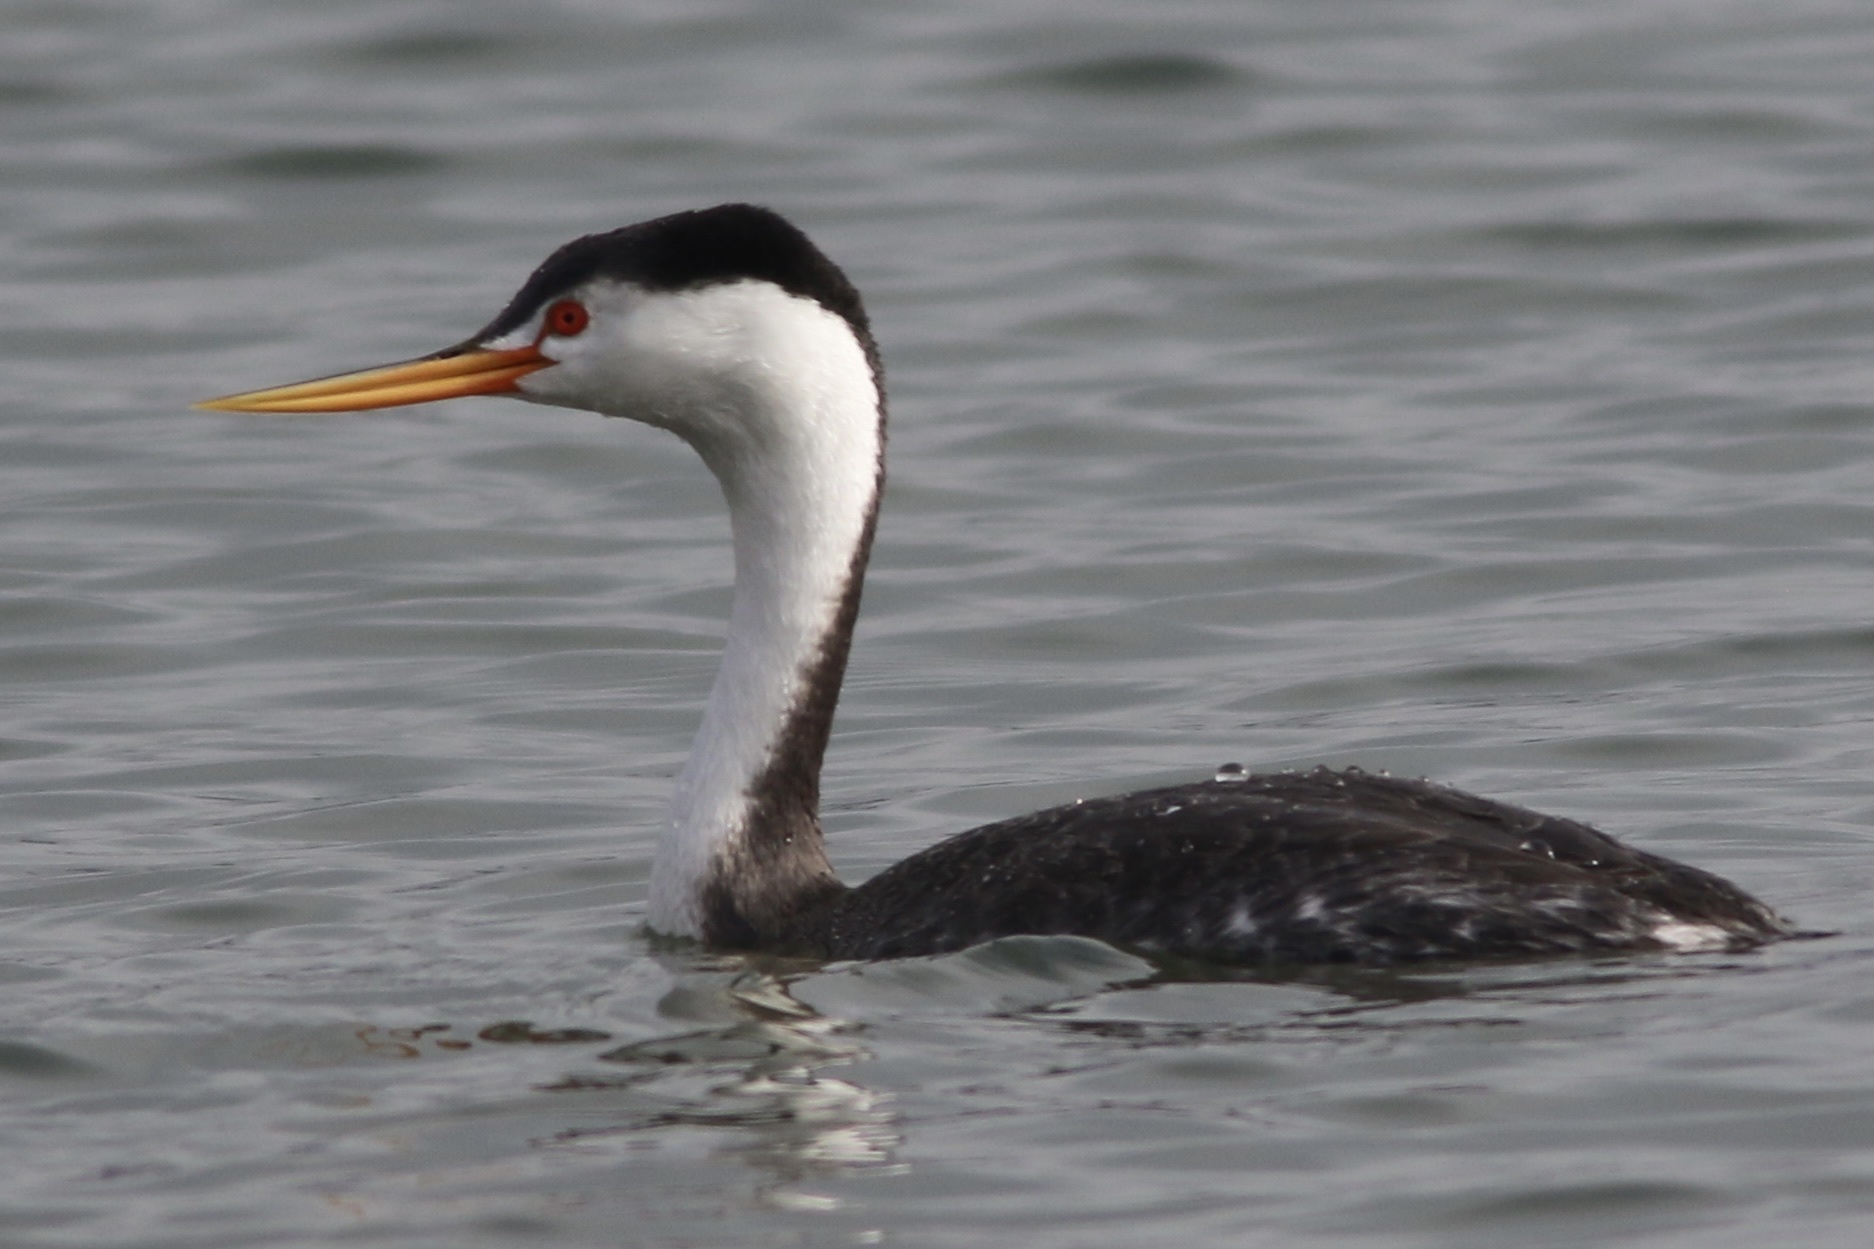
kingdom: Animalia
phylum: Chordata
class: Aves
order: Podicipediformes
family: Podicipedidae
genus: Aechmophorus
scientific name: Aechmophorus clarkii
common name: Clark's grebe
